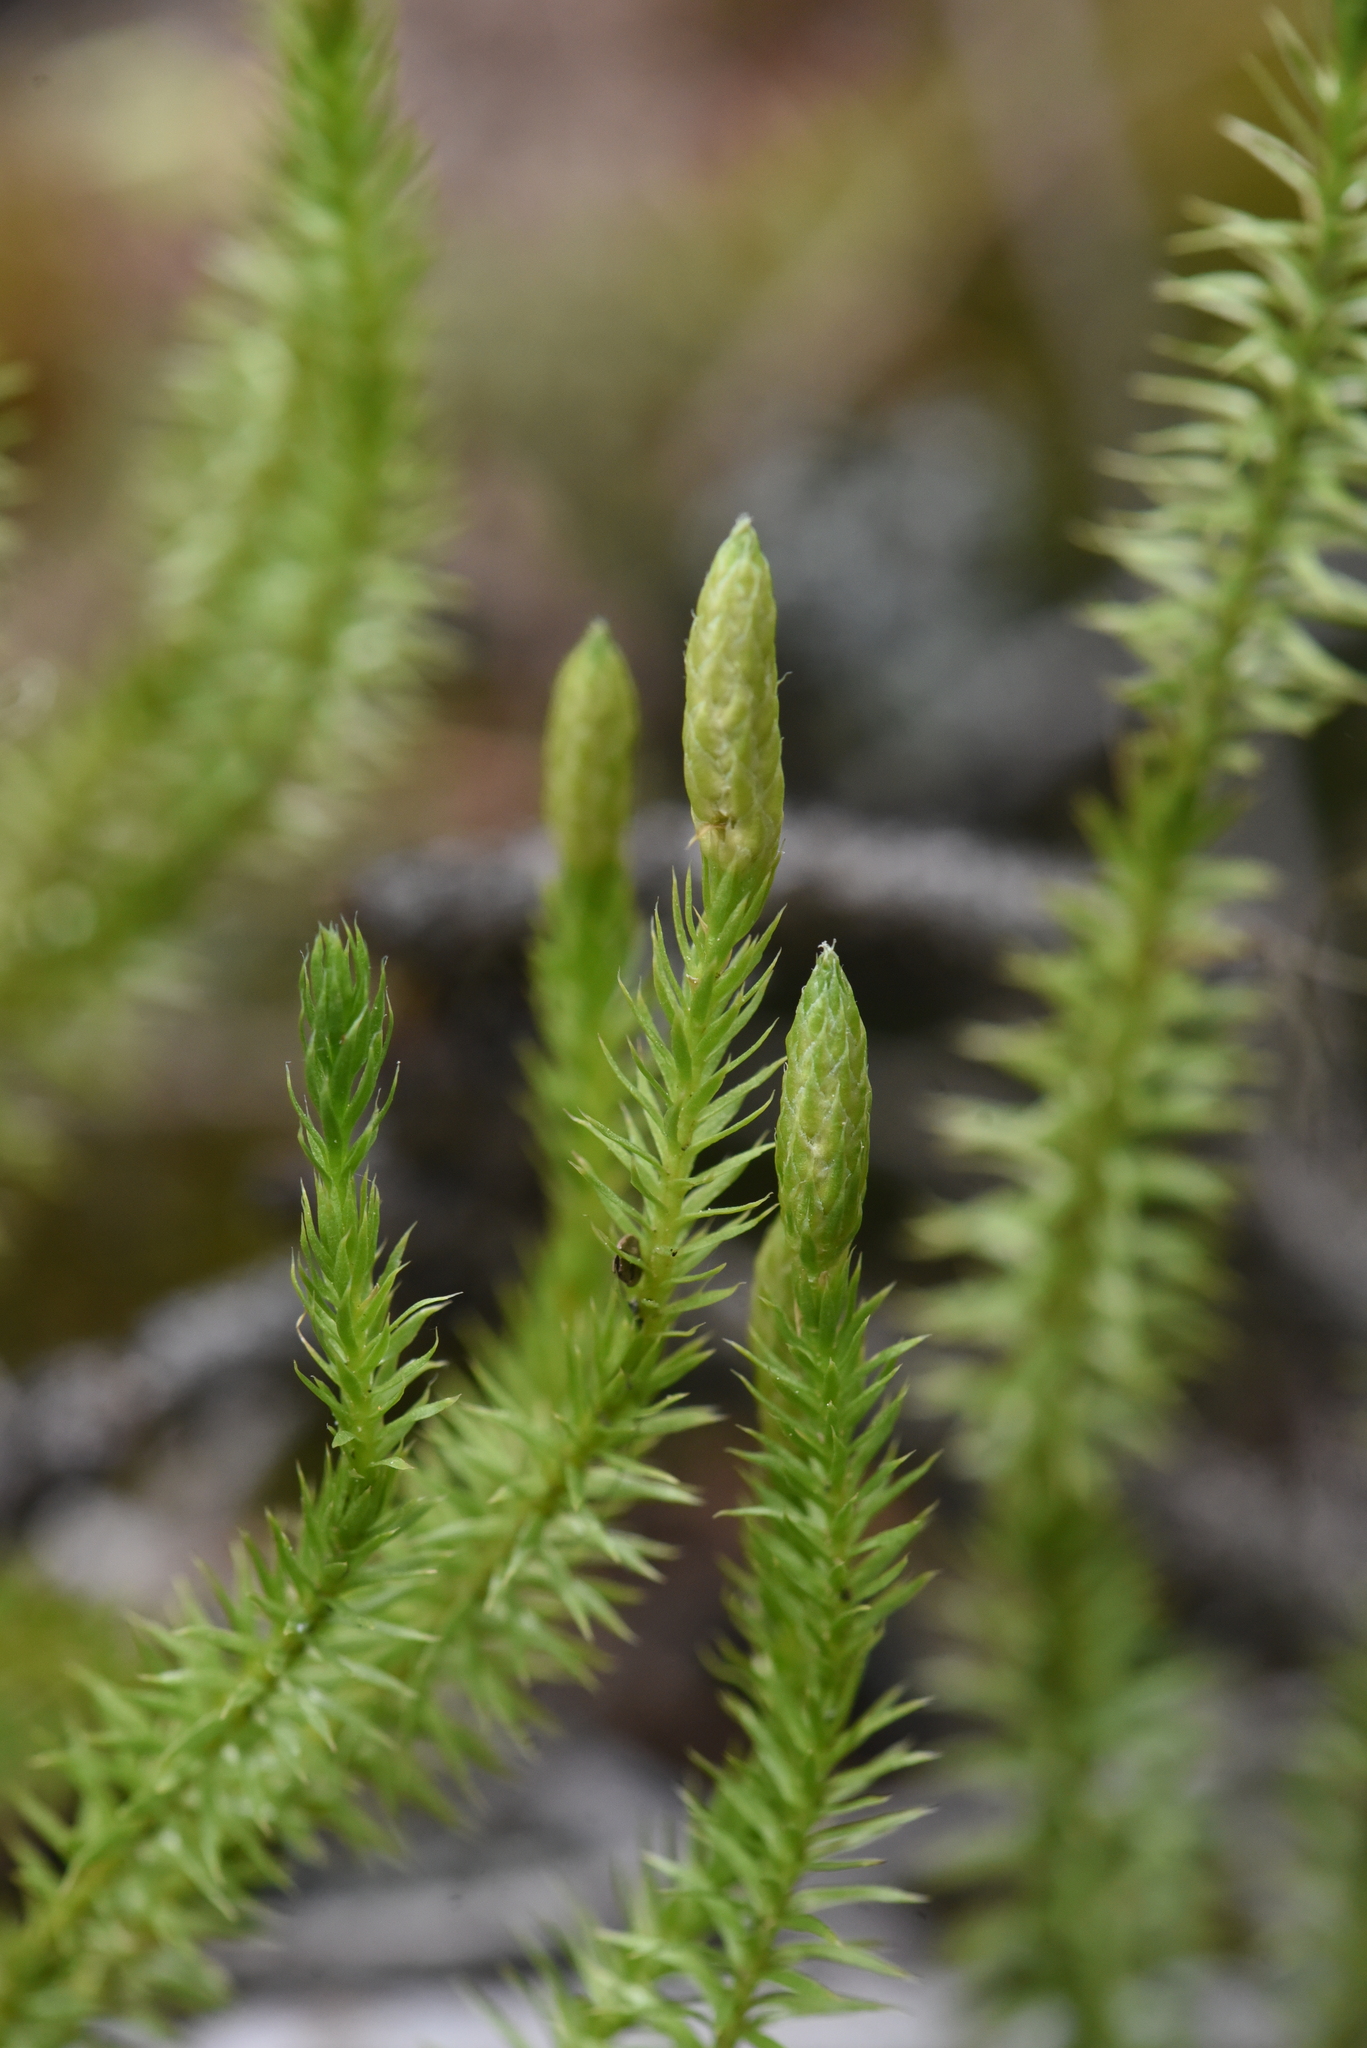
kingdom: Plantae
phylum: Tracheophyta
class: Lycopodiopsida
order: Lycopodiales
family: Lycopodiaceae
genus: Spinulum
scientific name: Spinulum annotinum
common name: Interrupted club-moss
